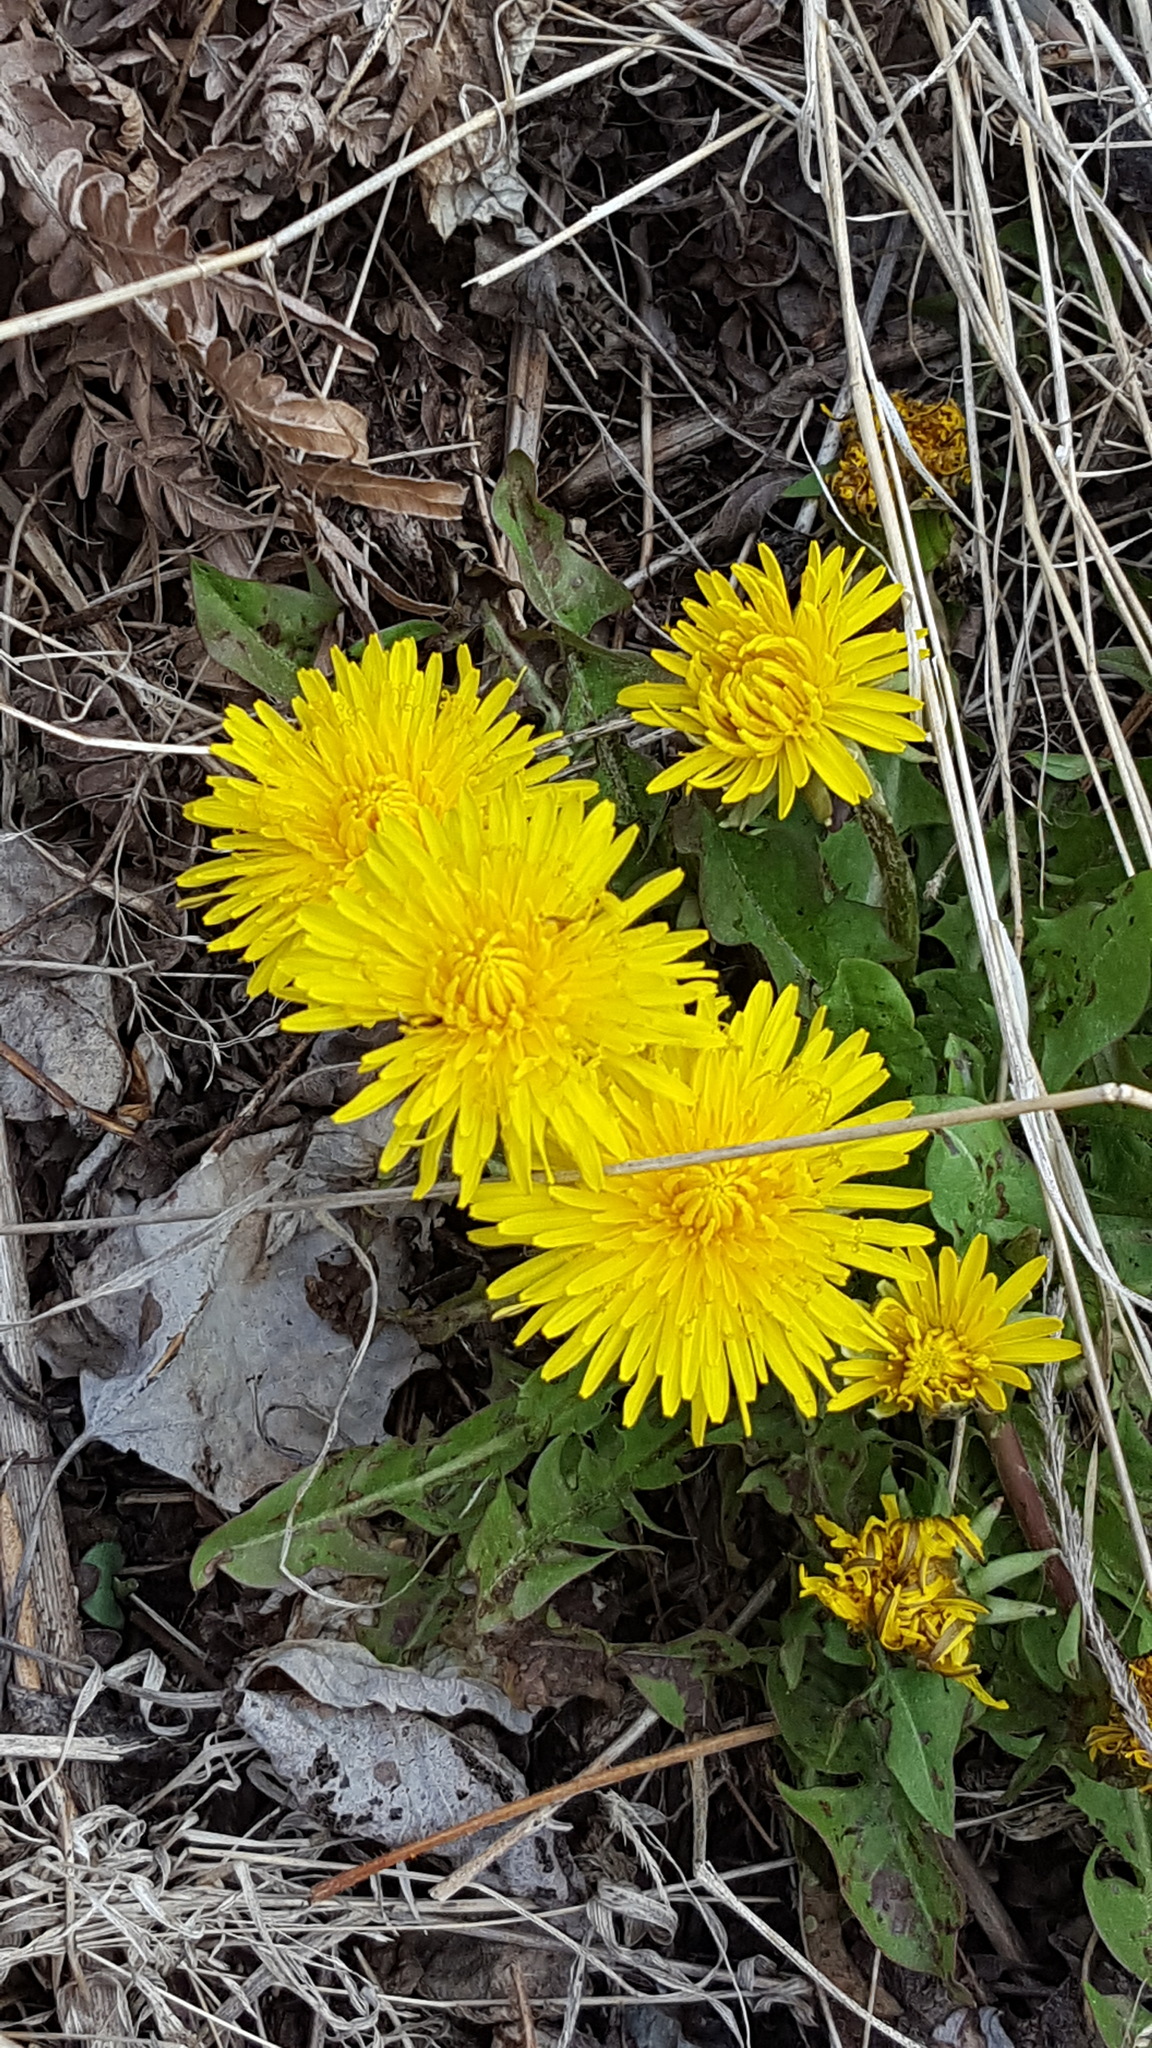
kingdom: Plantae
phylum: Tracheophyta
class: Magnoliopsida
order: Asterales
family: Asteraceae
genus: Taraxacum
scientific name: Taraxacum officinale
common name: Common dandelion
